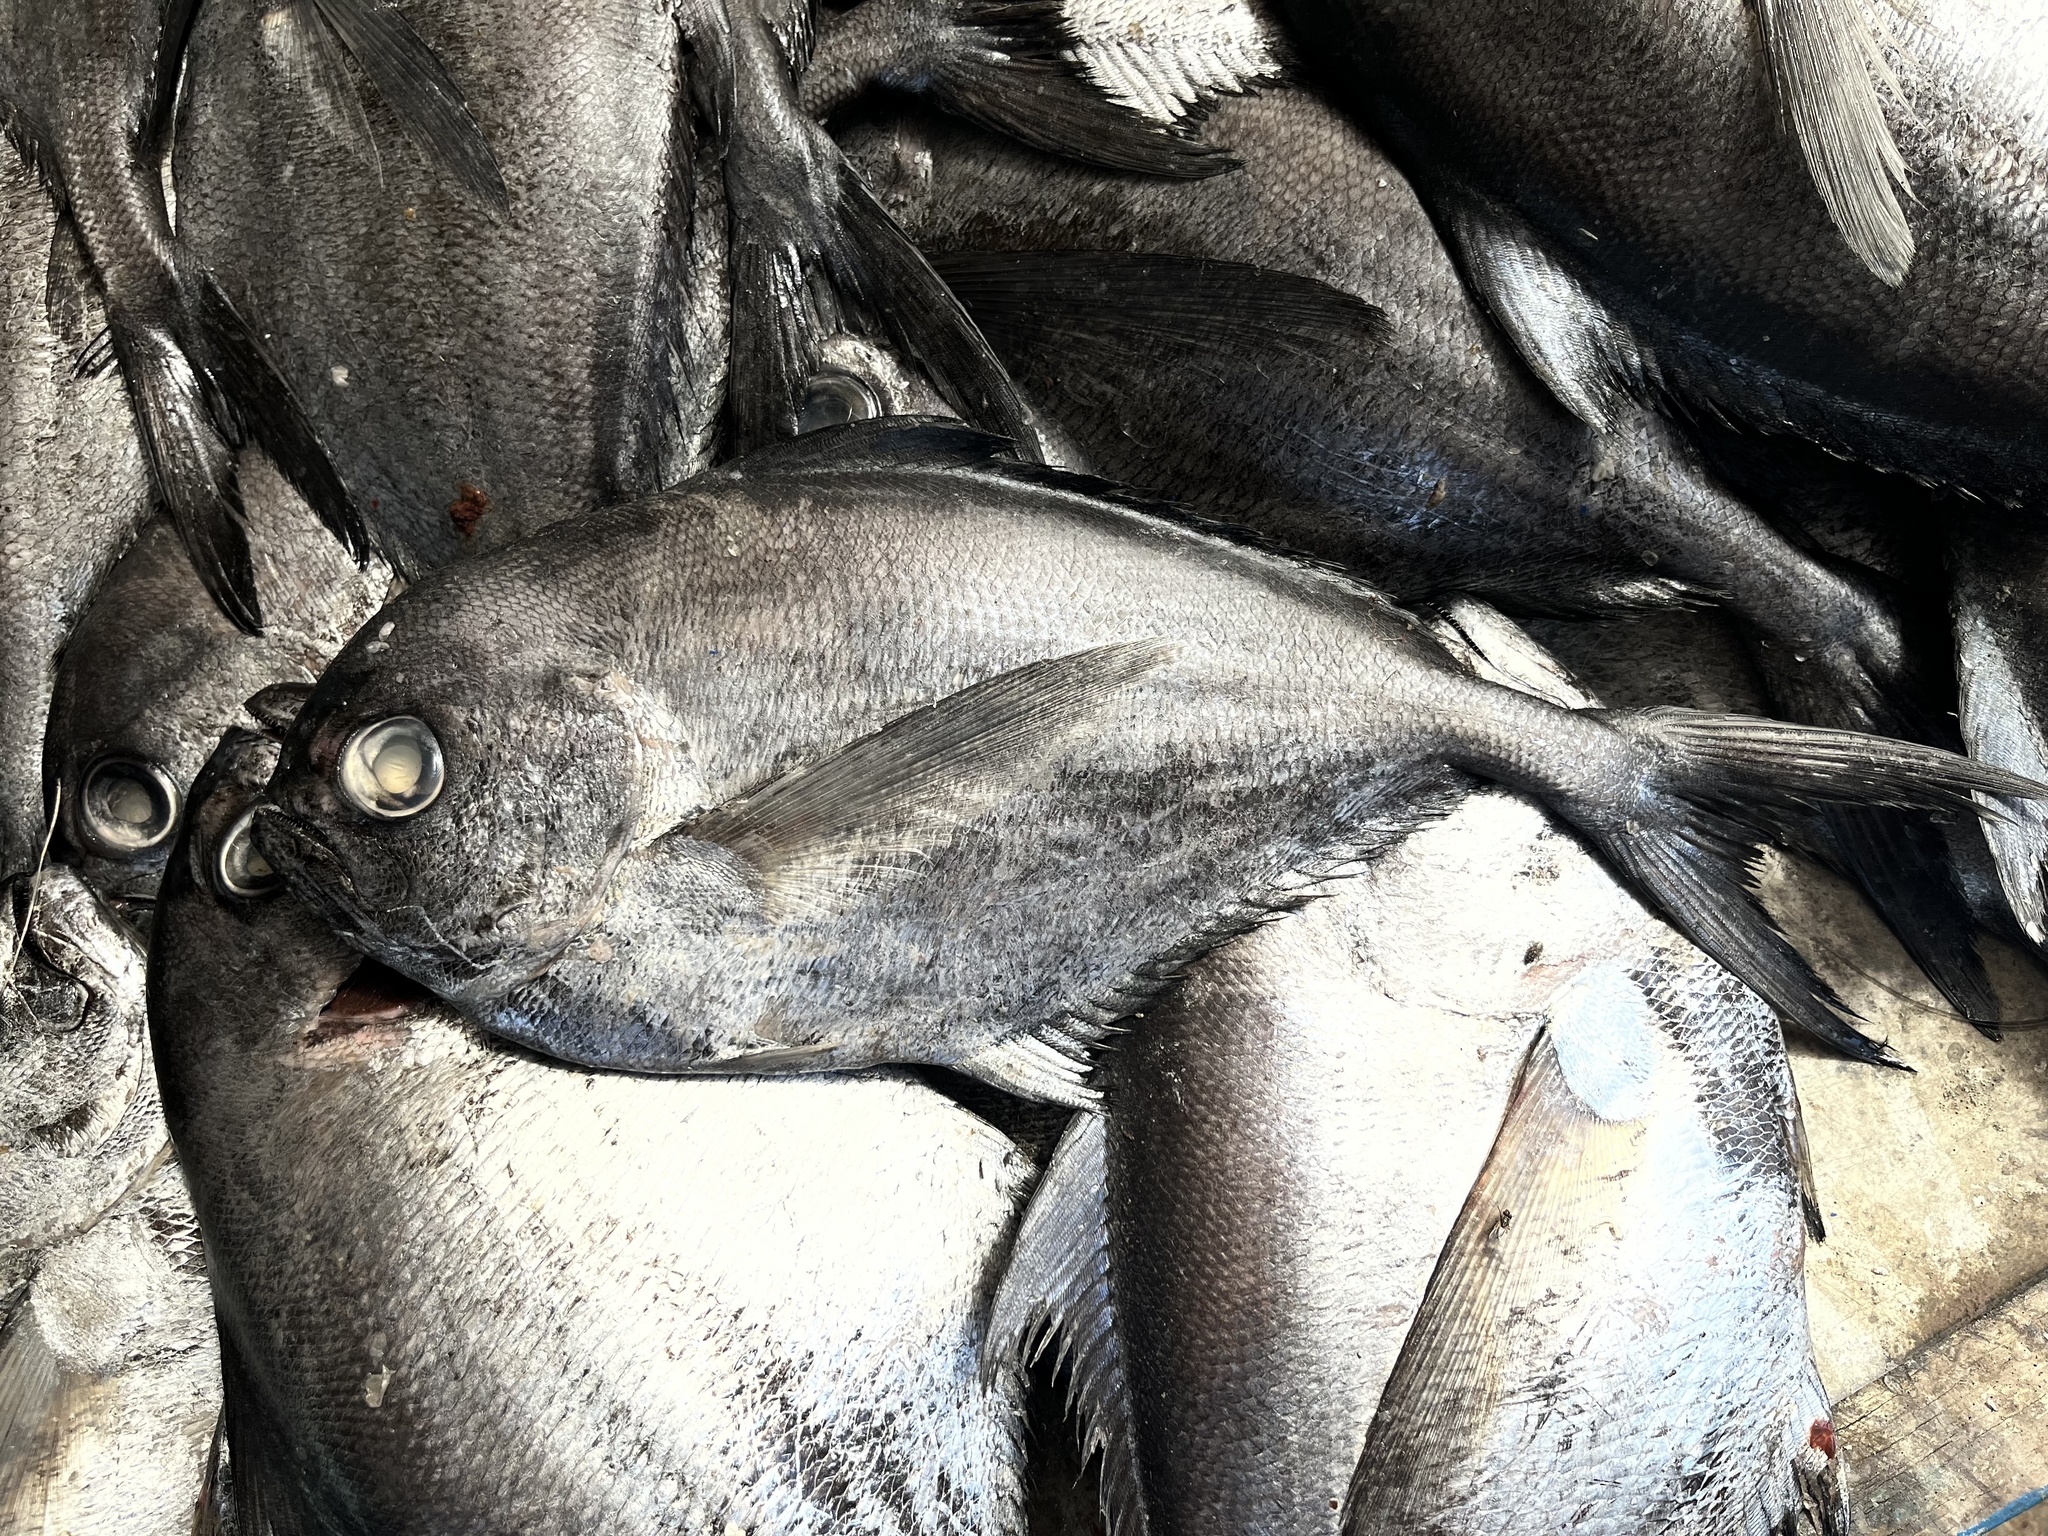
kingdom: Animalia
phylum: Chordata
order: Perciformes
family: Bramidae
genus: Brama
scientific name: Brama australis
